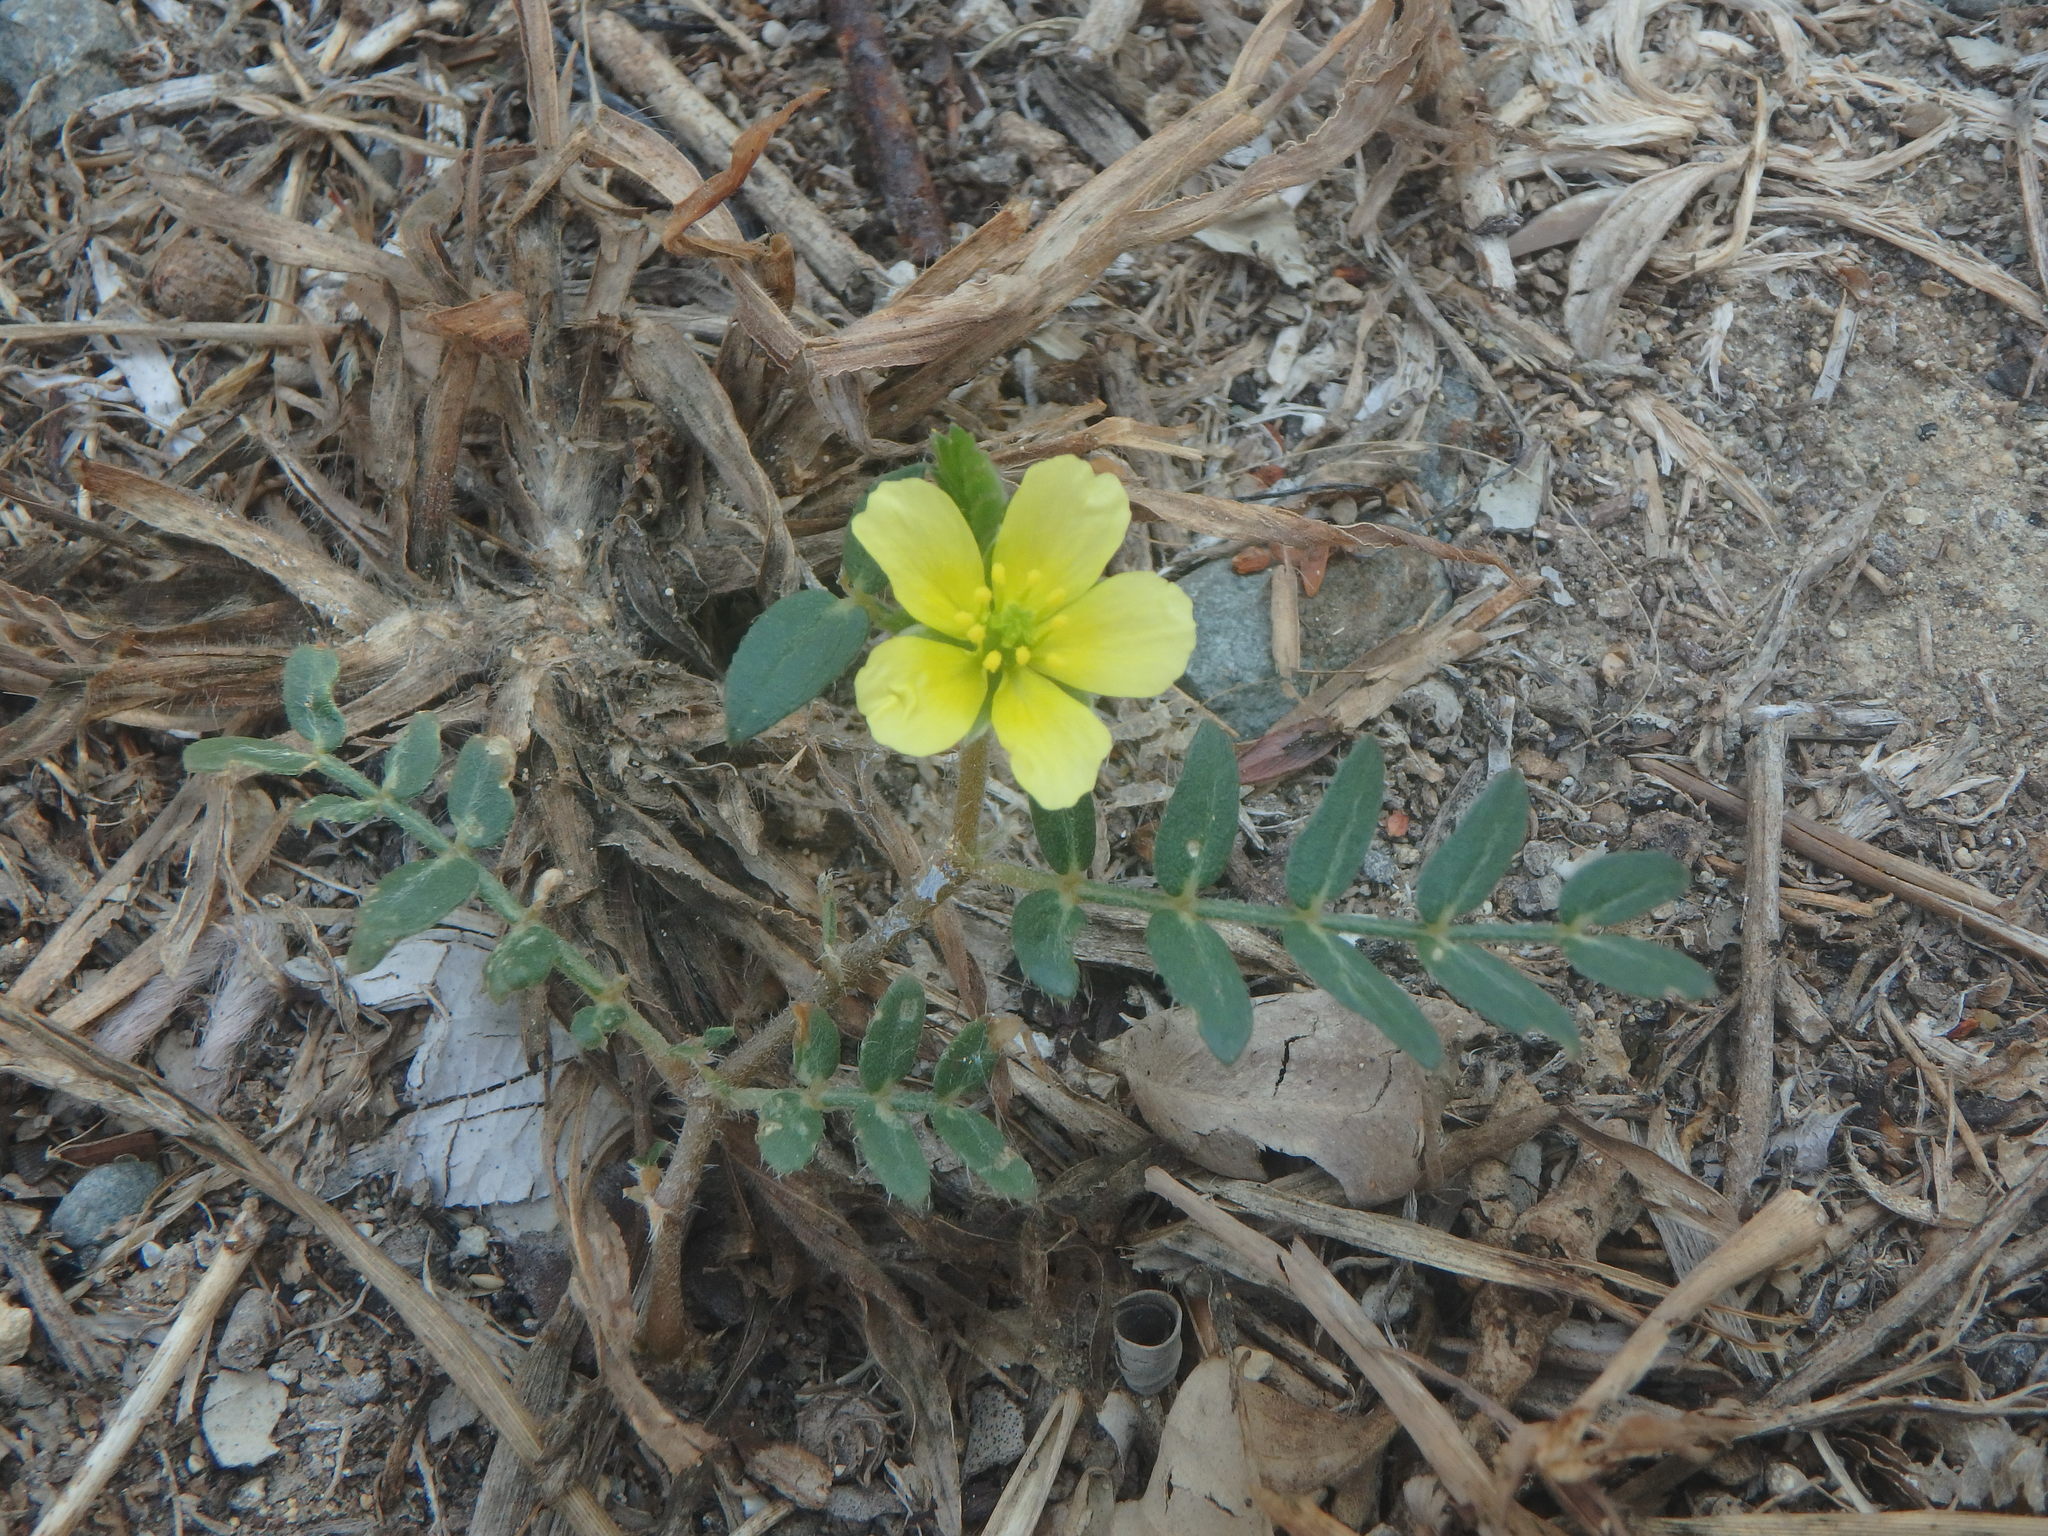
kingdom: Plantae
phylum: Tracheophyta
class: Magnoliopsida
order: Zygophyllales
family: Zygophyllaceae
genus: Tribulus
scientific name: Tribulus terrestris
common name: Puncturevine
